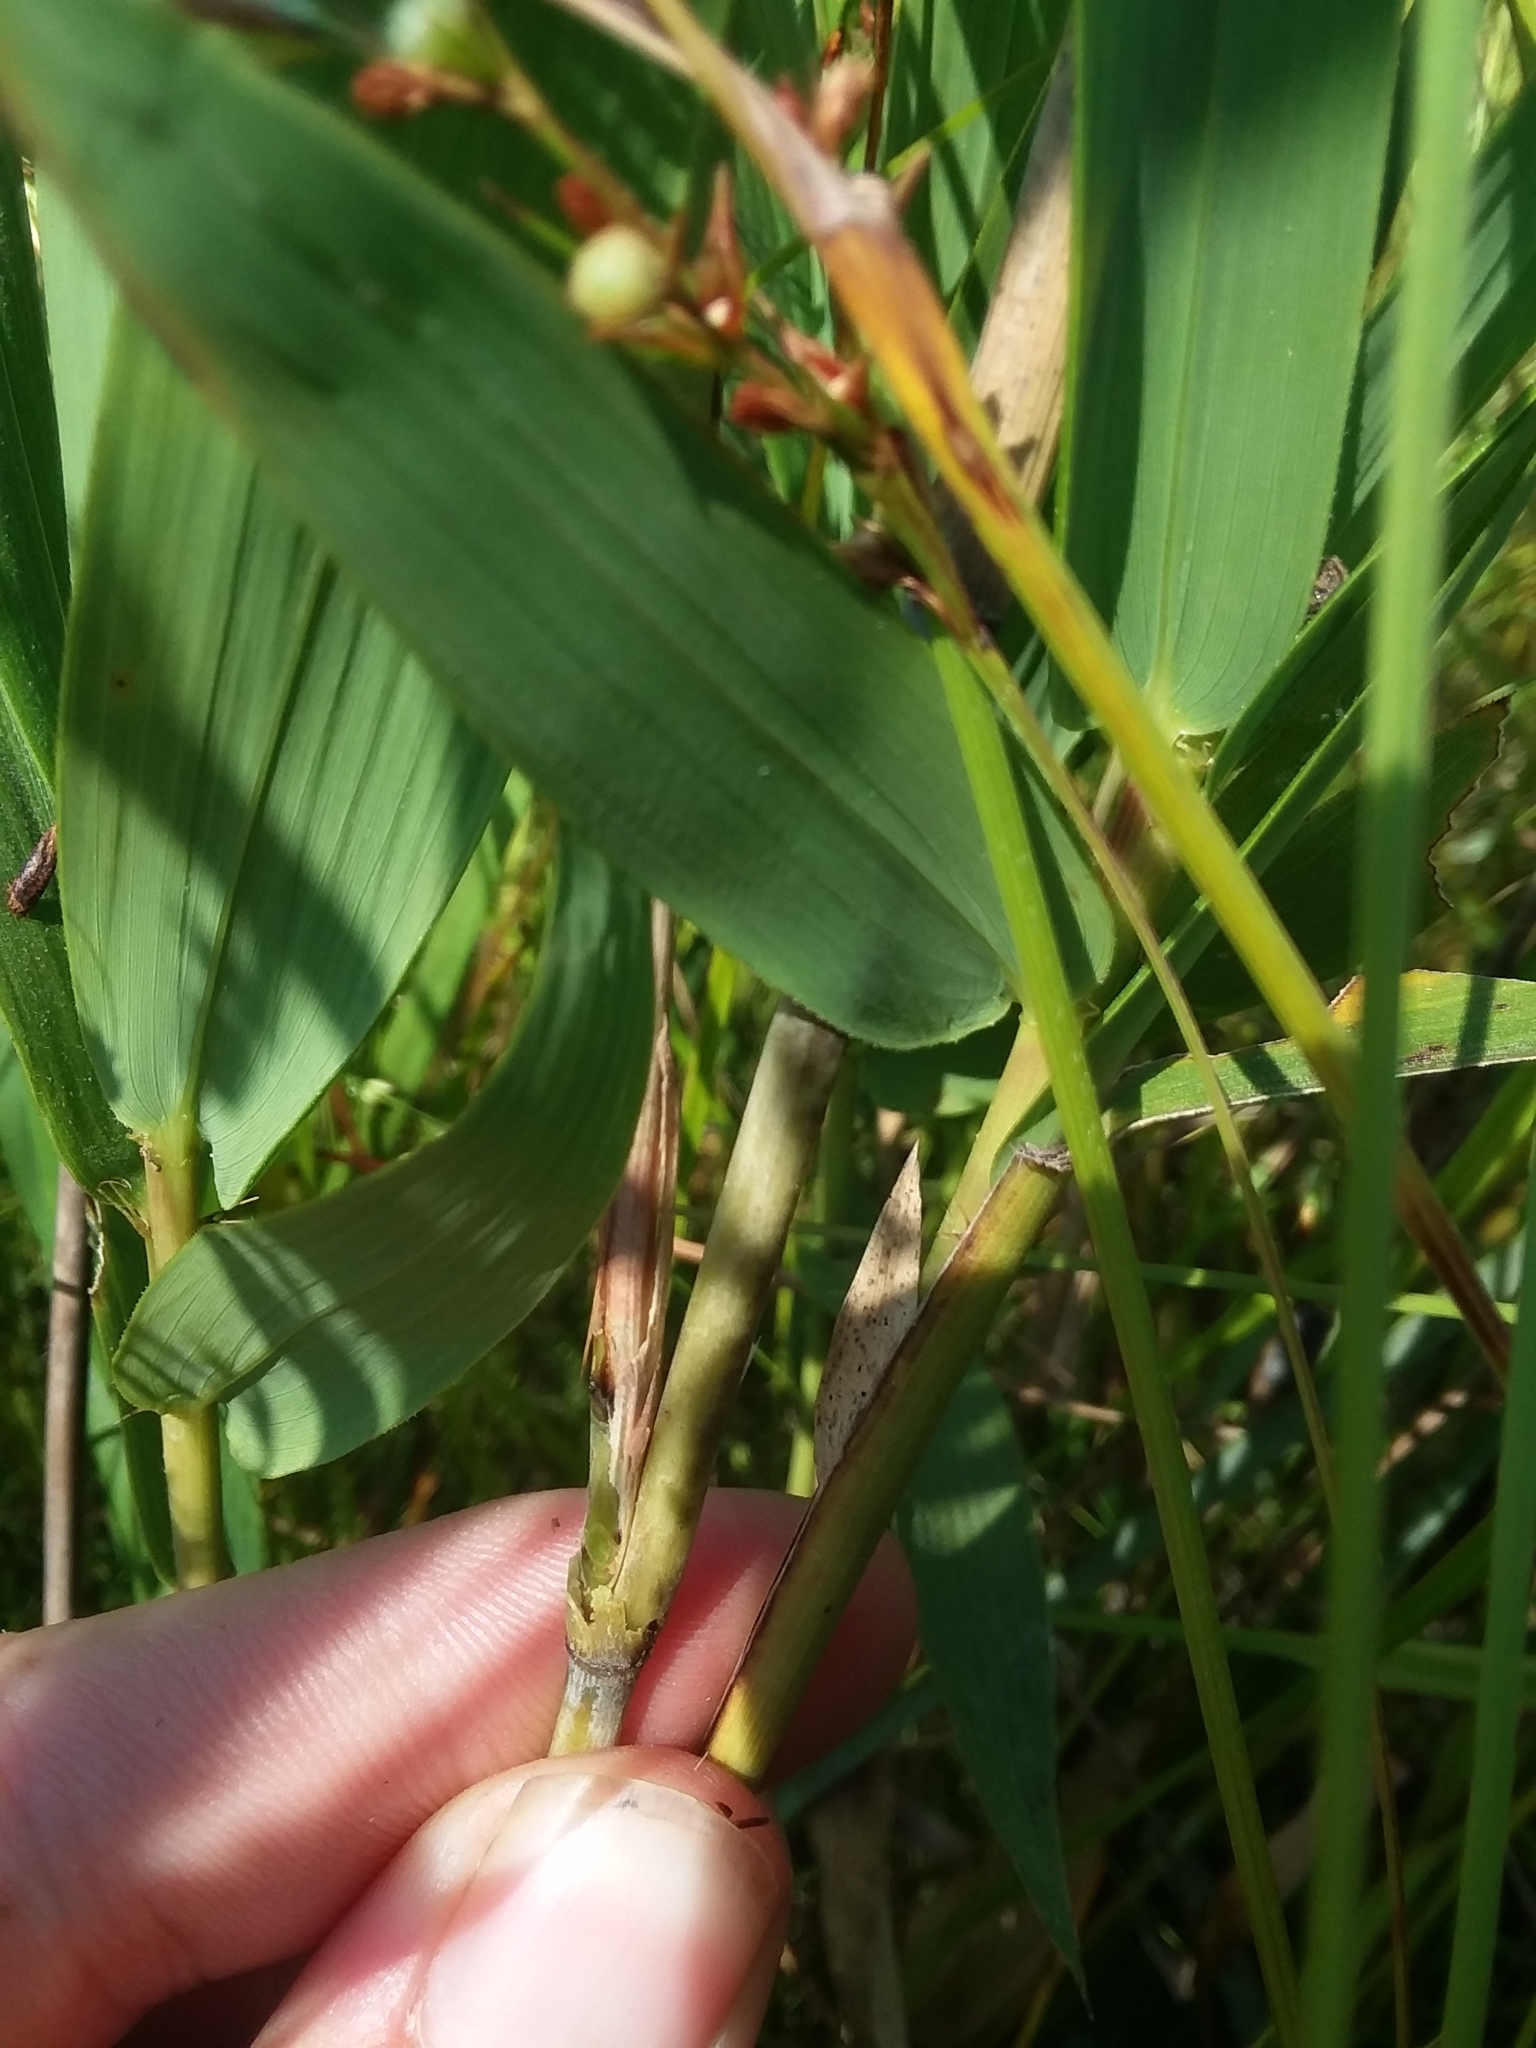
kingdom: Plantae
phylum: Tracheophyta
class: Liliopsida
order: Poales
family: Poaceae
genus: Arundinaria
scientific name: Arundinaria tecta
